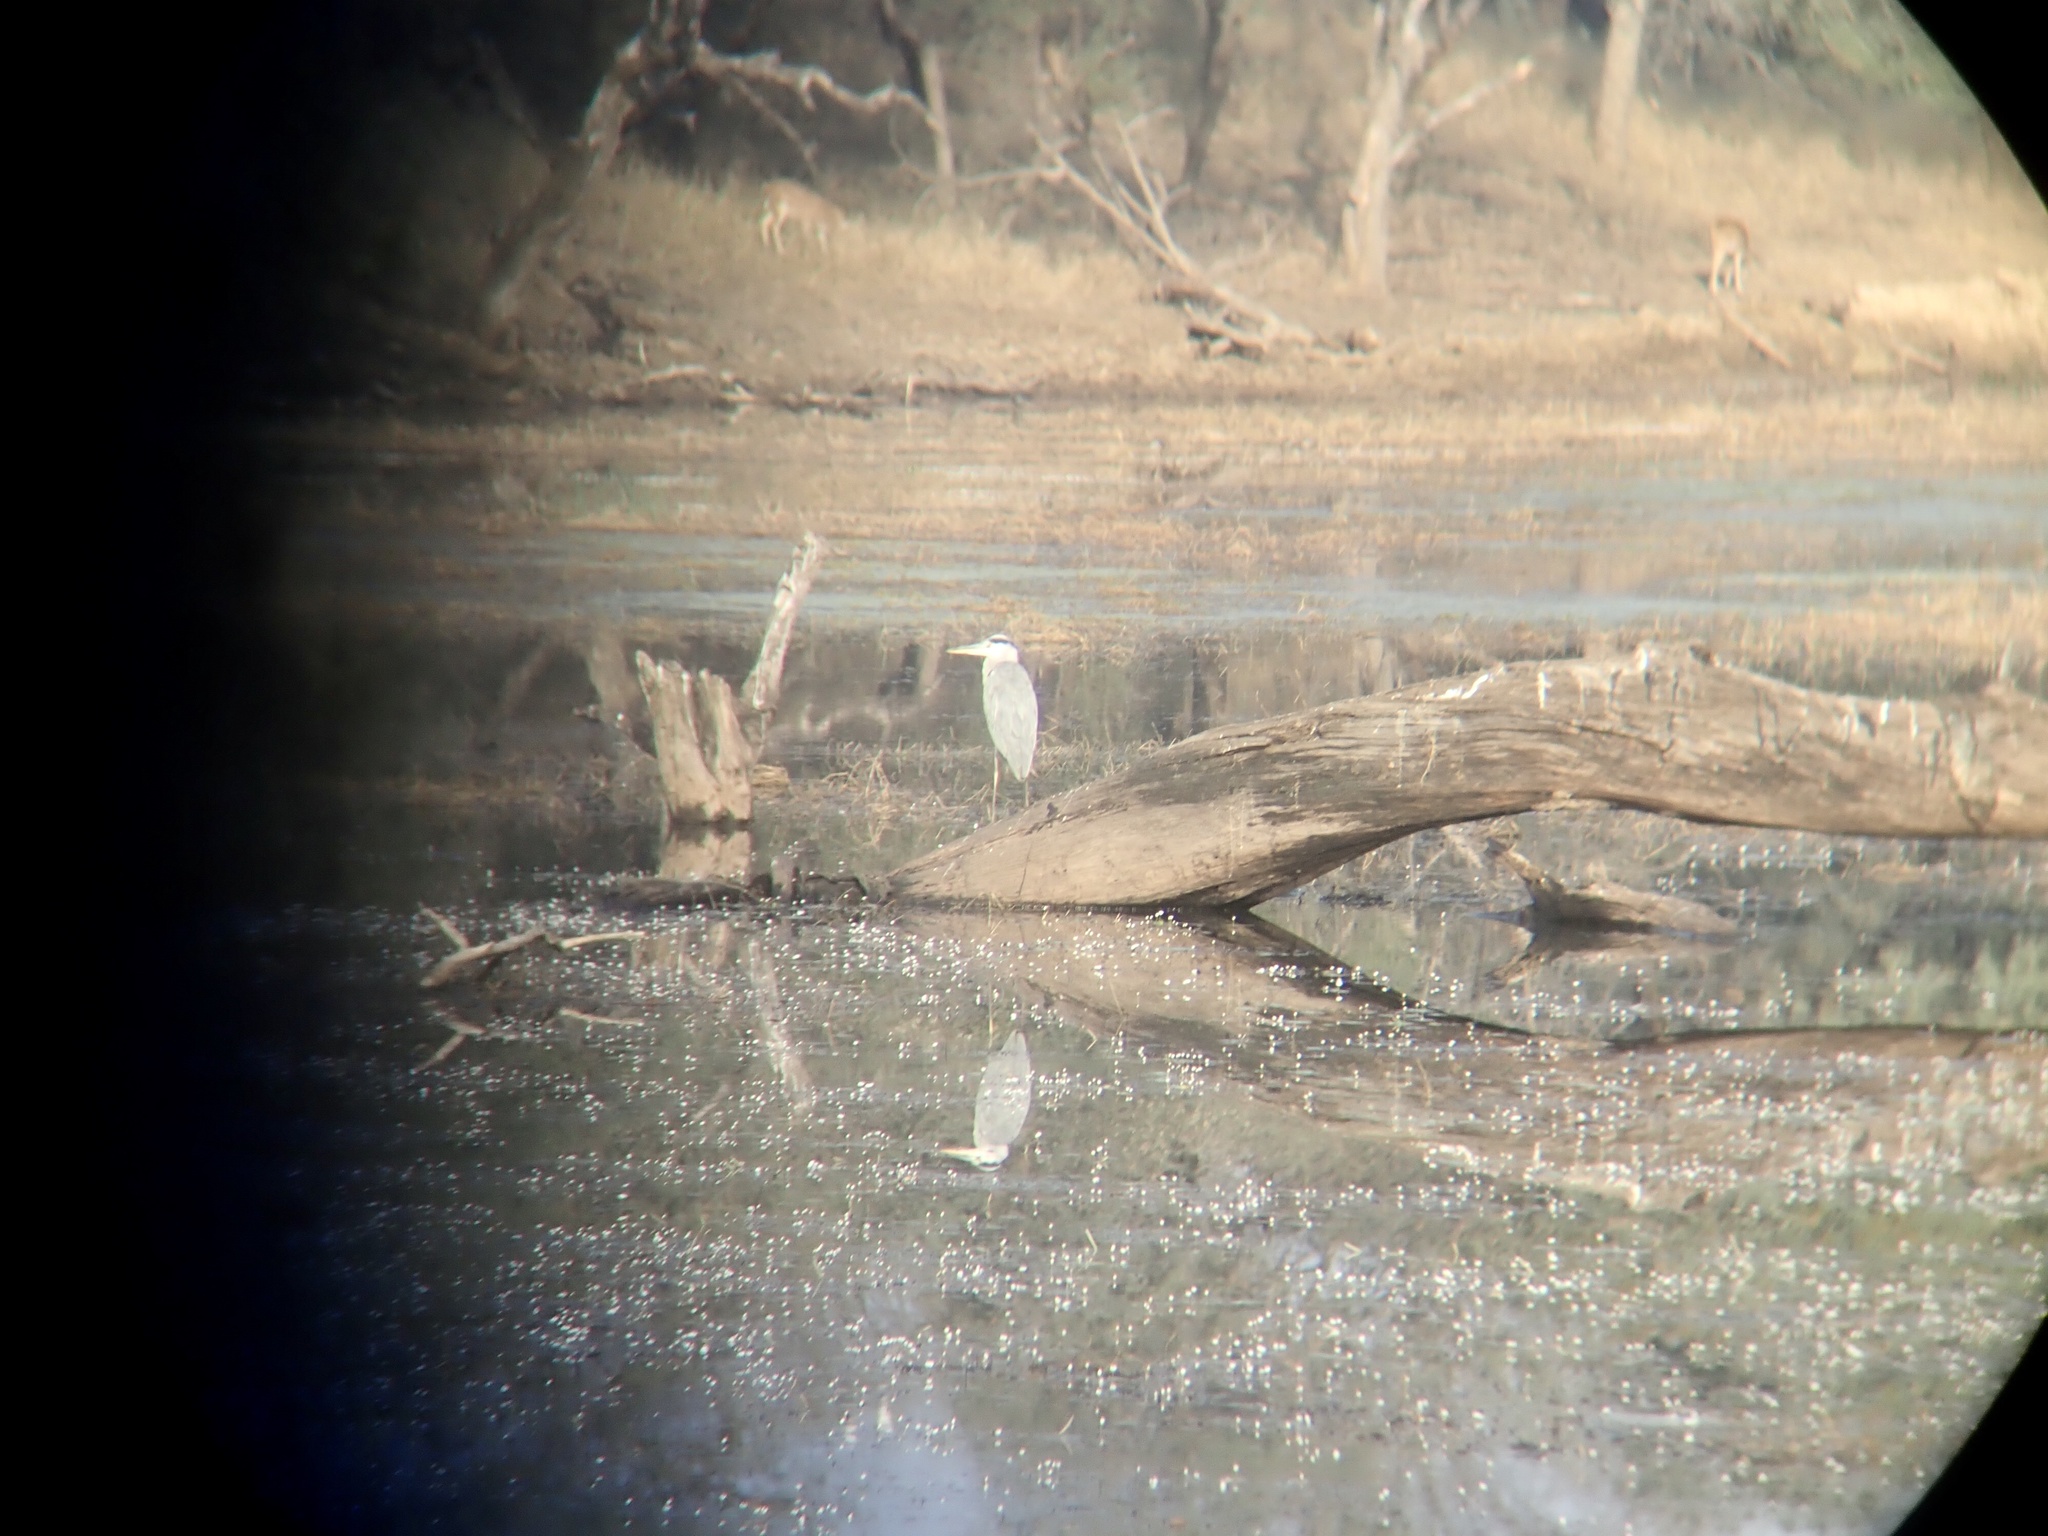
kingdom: Animalia
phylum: Chordata
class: Aves
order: Pelecaniformes
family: Ardeidae
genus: Ardea
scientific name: Ardea cinerea
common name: Grey heron
